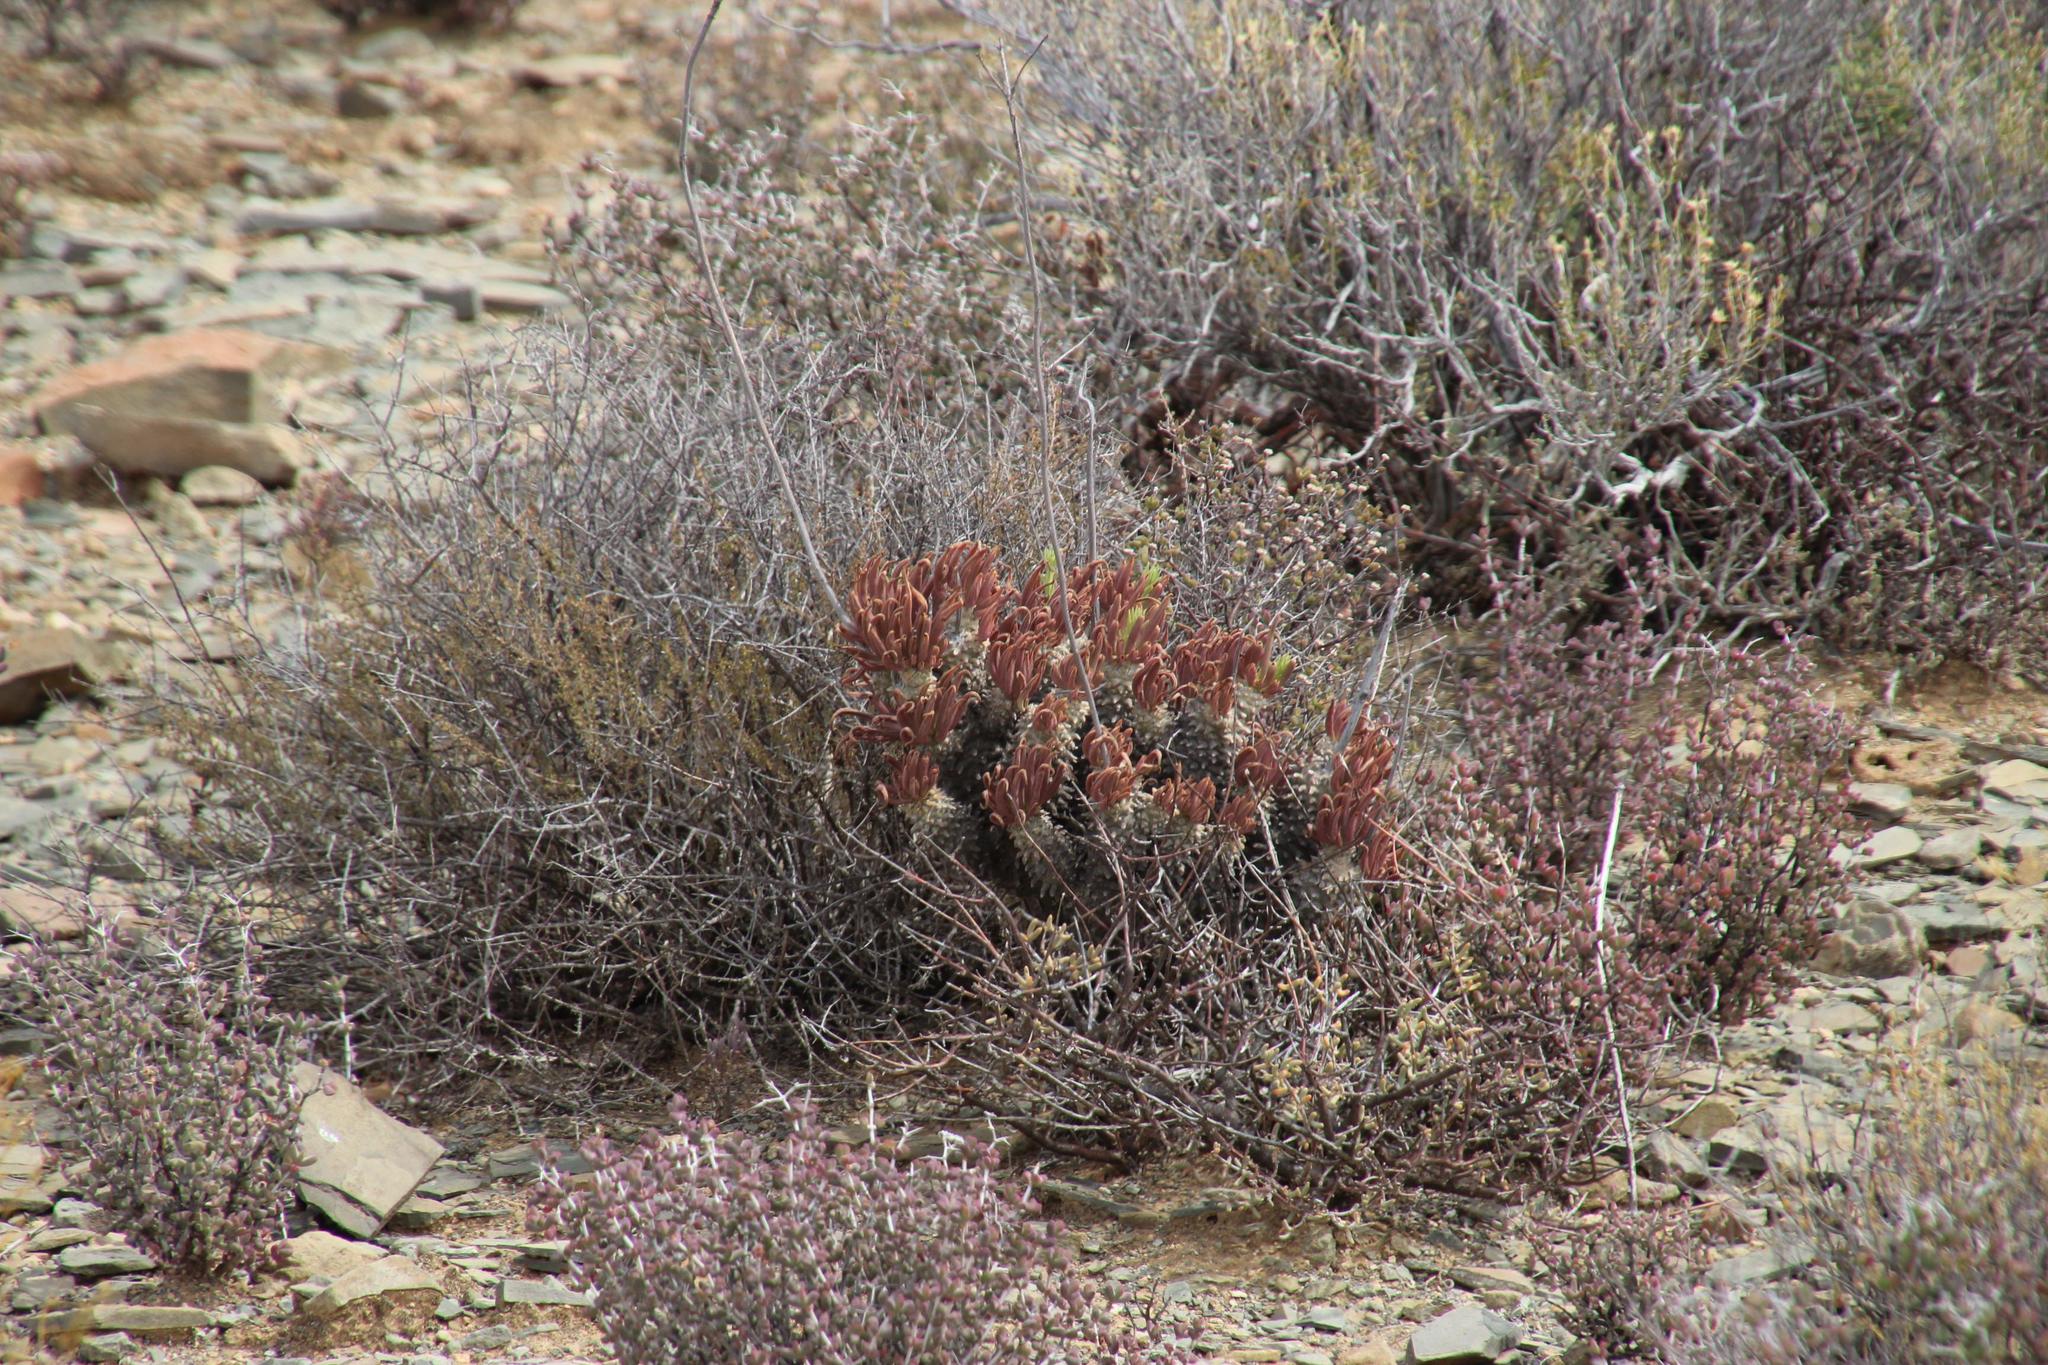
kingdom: Plantae
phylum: Tracheophyta
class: Magnoliopsida
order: Saxifragales
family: Crassulaceae
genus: Tylecodon
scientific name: Tylecodon wallichii
